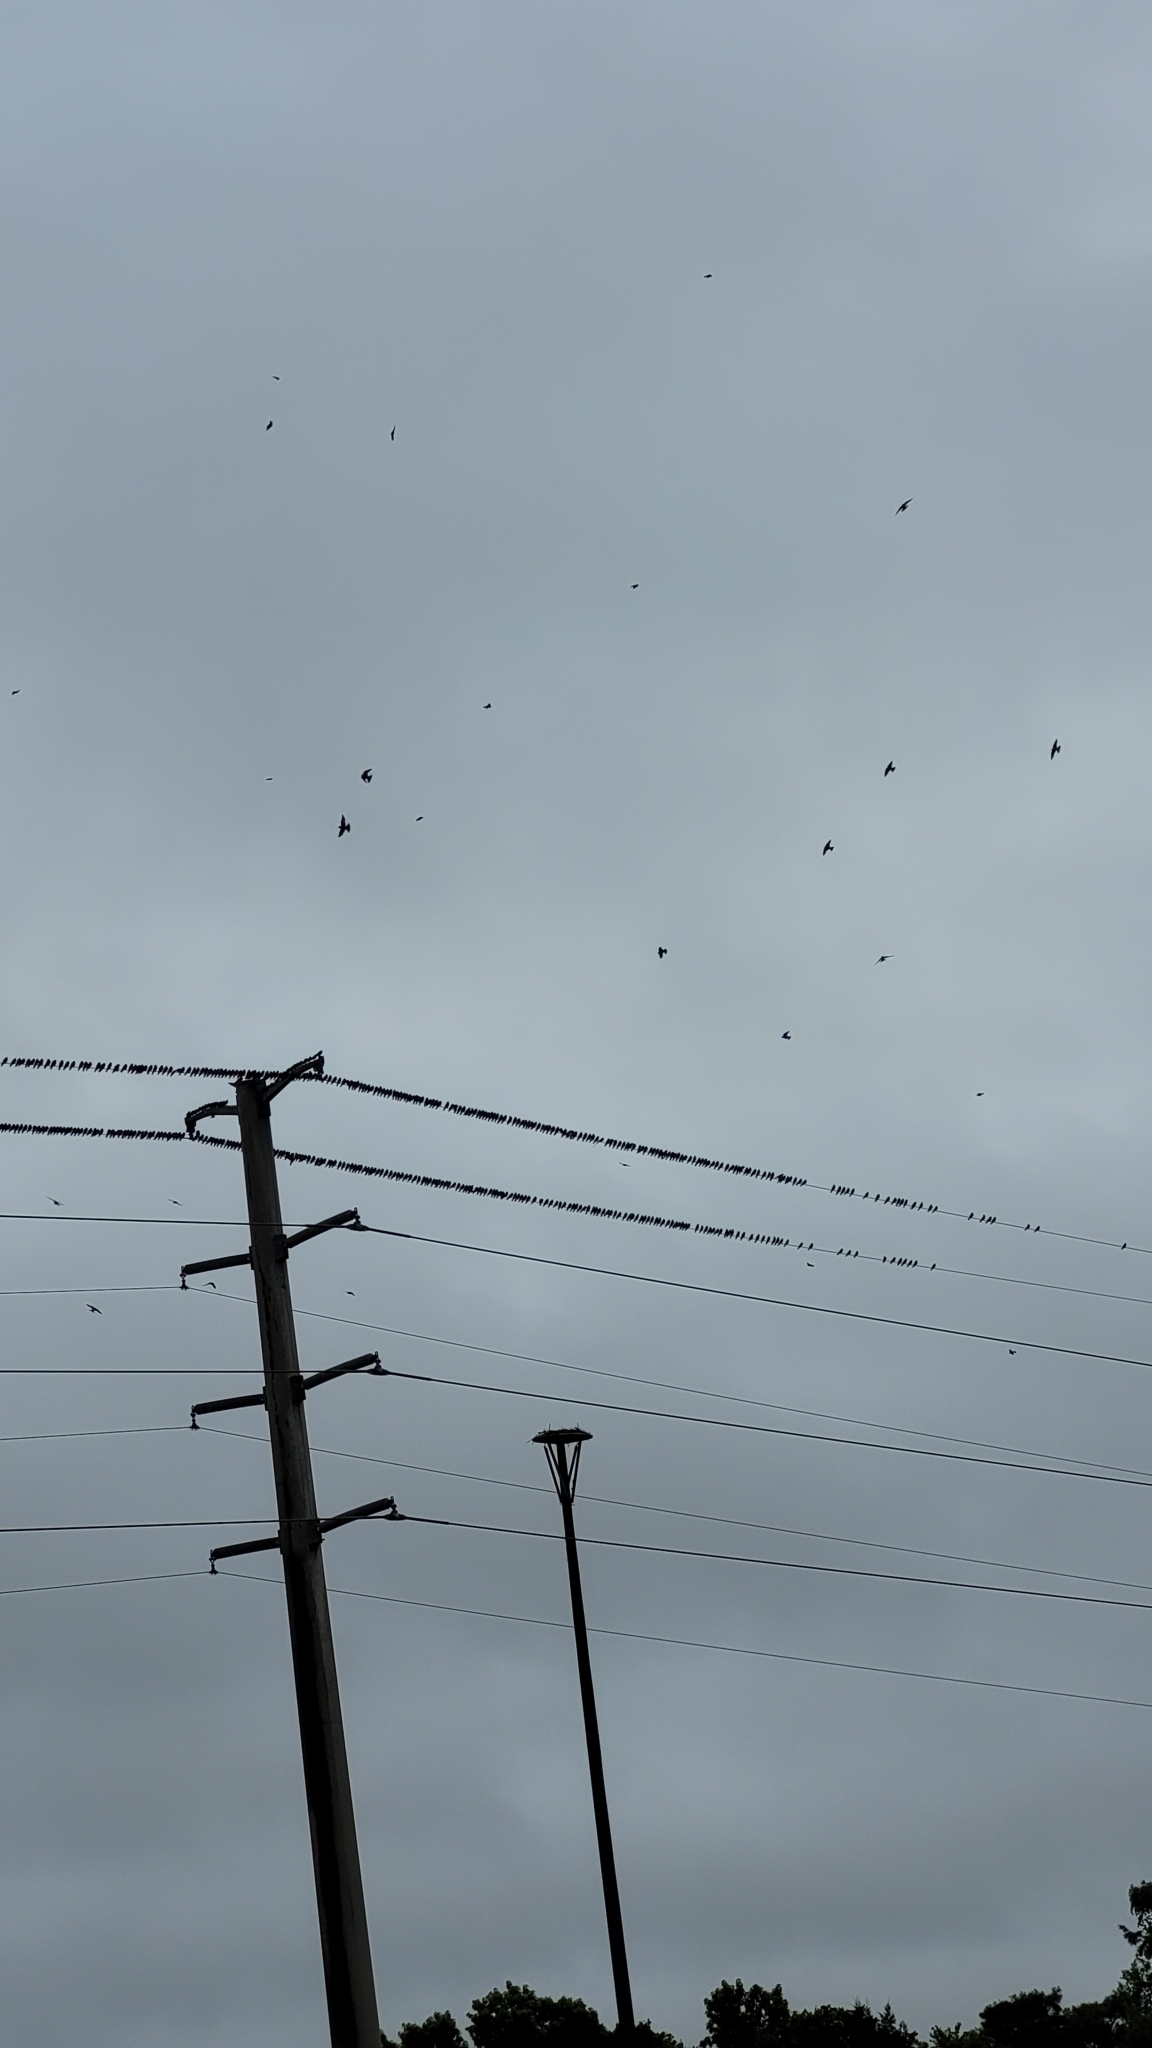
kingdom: Animalia
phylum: Chordata
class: Aves
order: Passeriformes
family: Hirundinidae
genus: Progne
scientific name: Progne subis
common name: Purple martin
